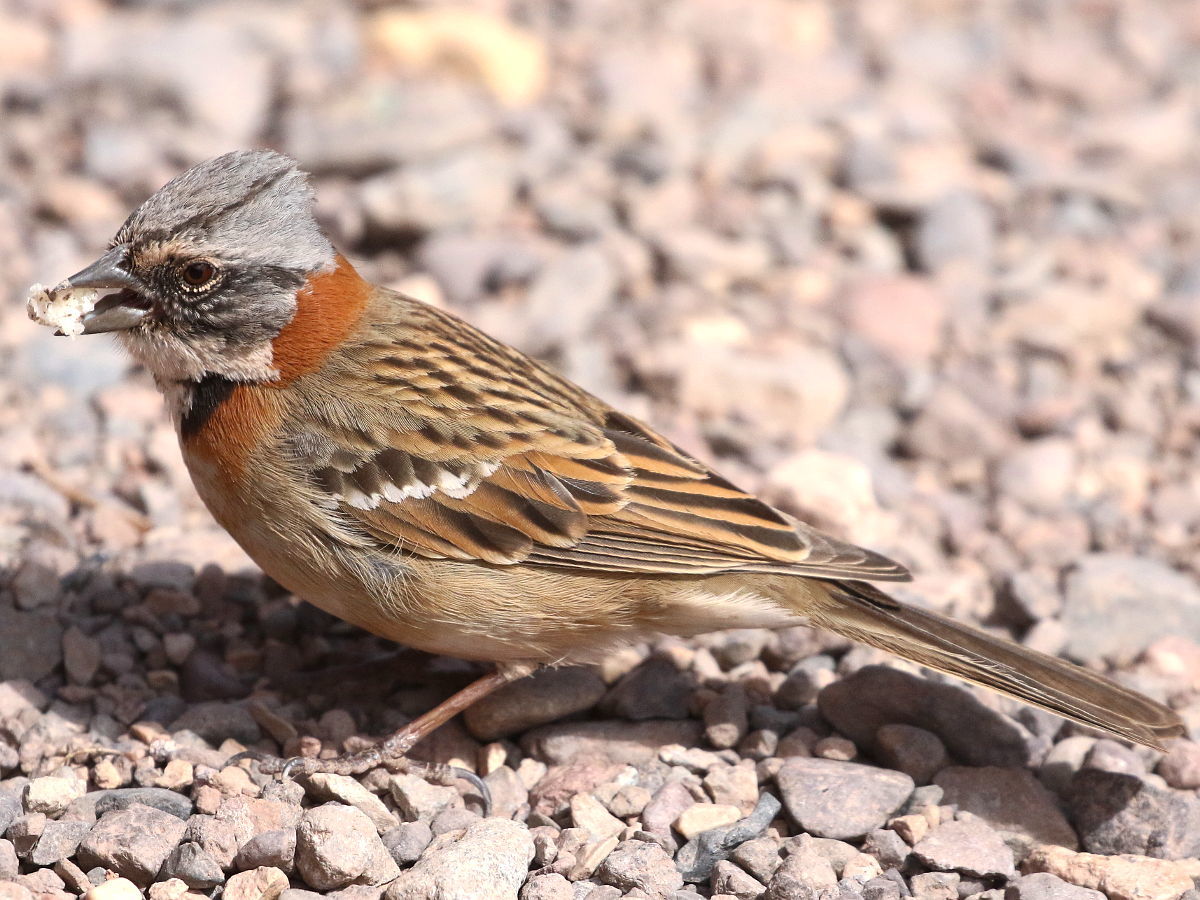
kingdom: Animalia
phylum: Chordata
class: Aves
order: Passeriformes
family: Passerellidae
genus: Zonotrichia
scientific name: Zonotrichia capensis
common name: Rufous-collared sparrow
